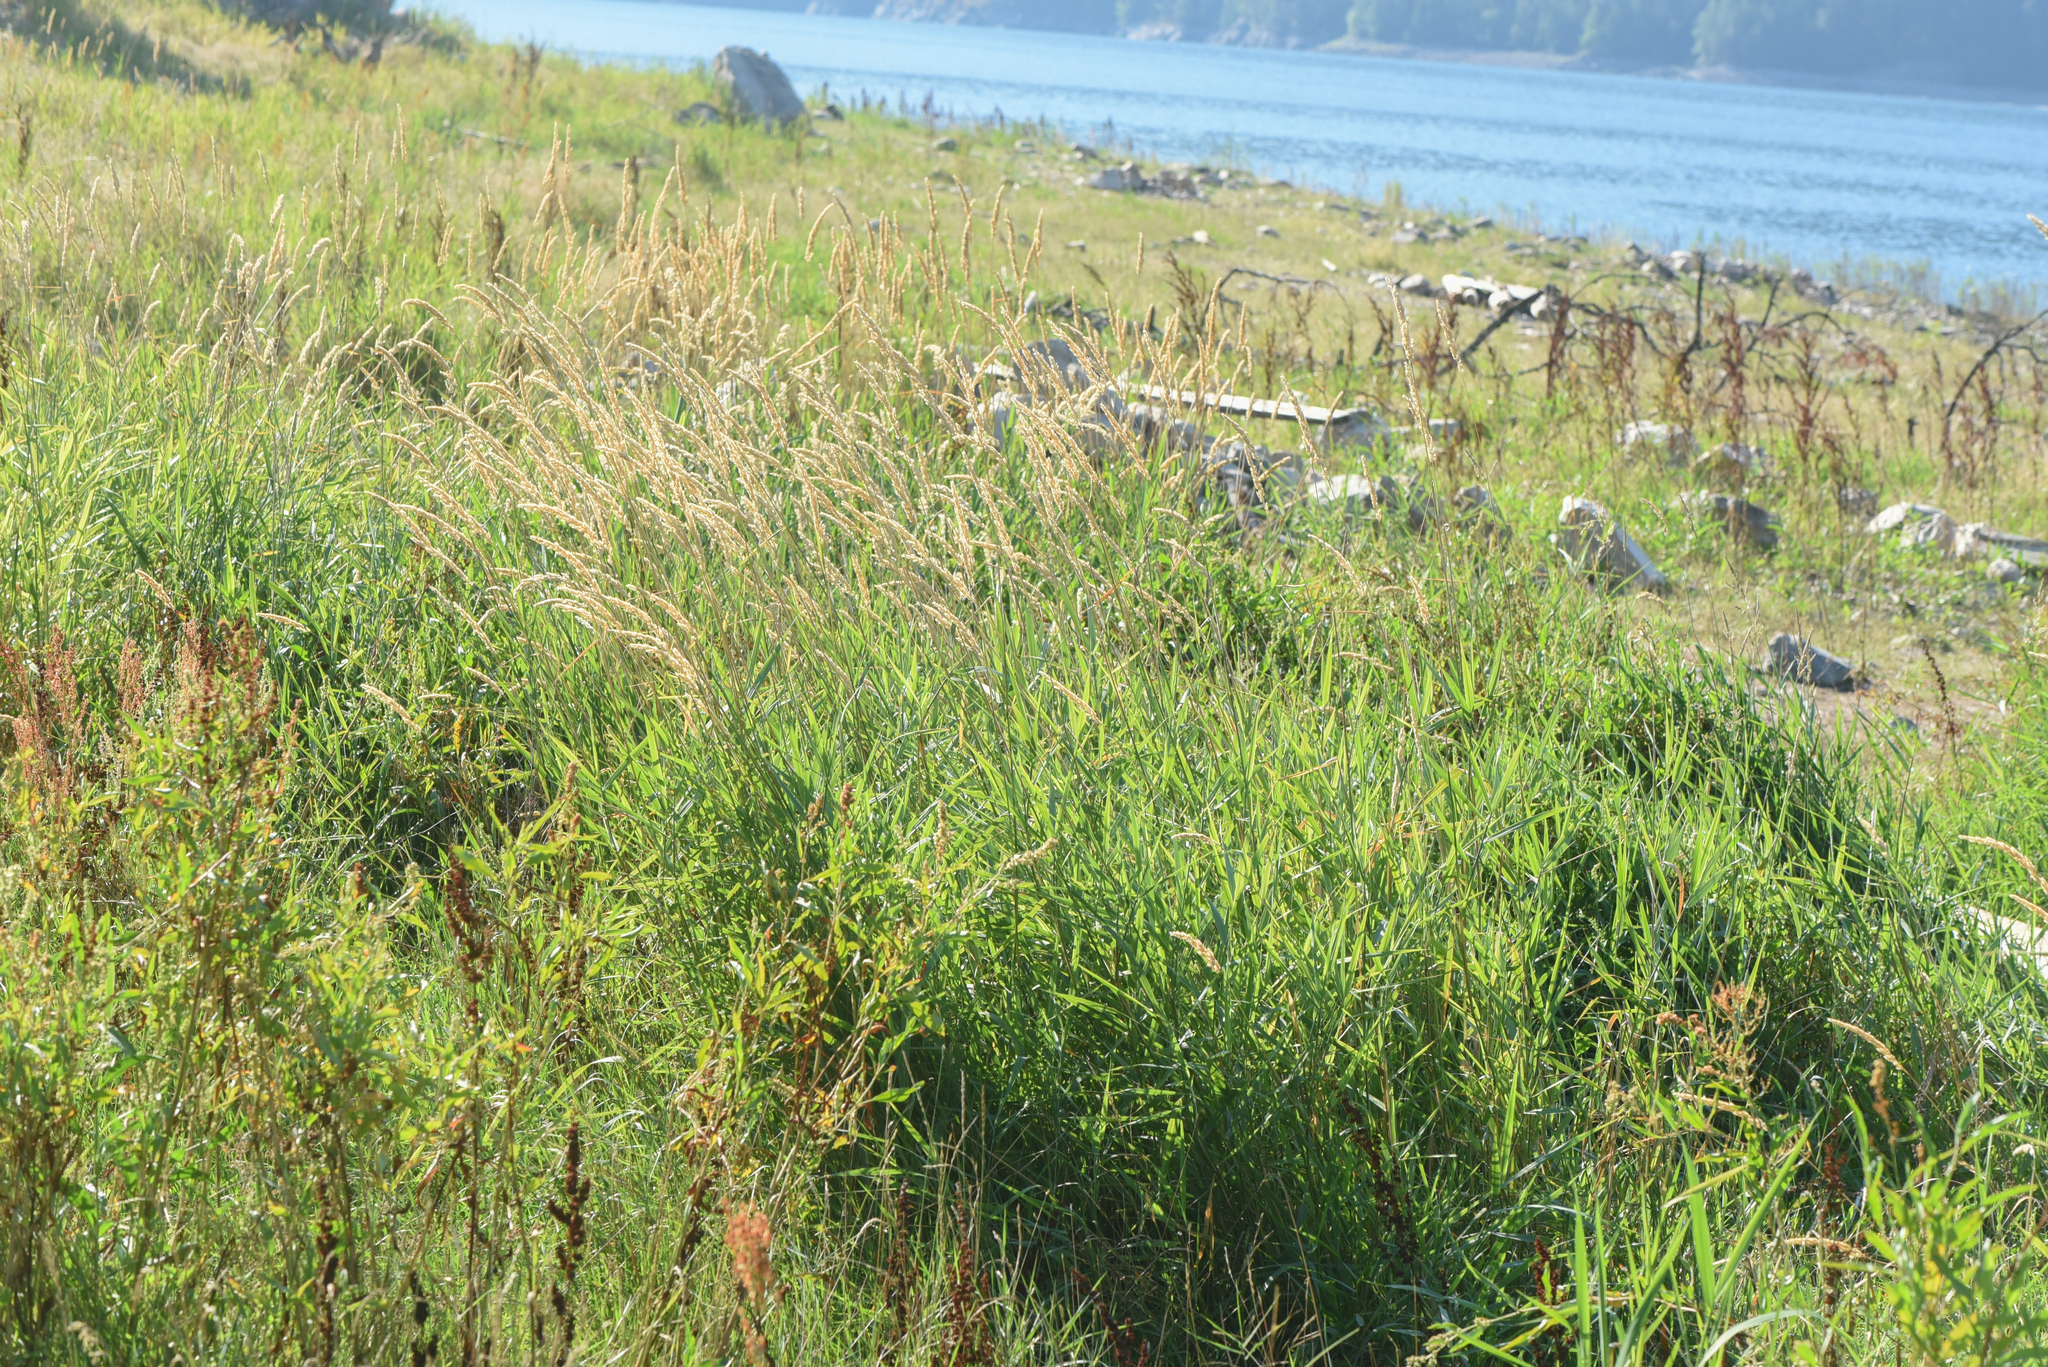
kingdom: Plantae
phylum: Tracheophyta
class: Liliopsida
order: Poales
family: Poaceae
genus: Phalaris
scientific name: Phalaris arundinacea
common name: Reed canary-grass
